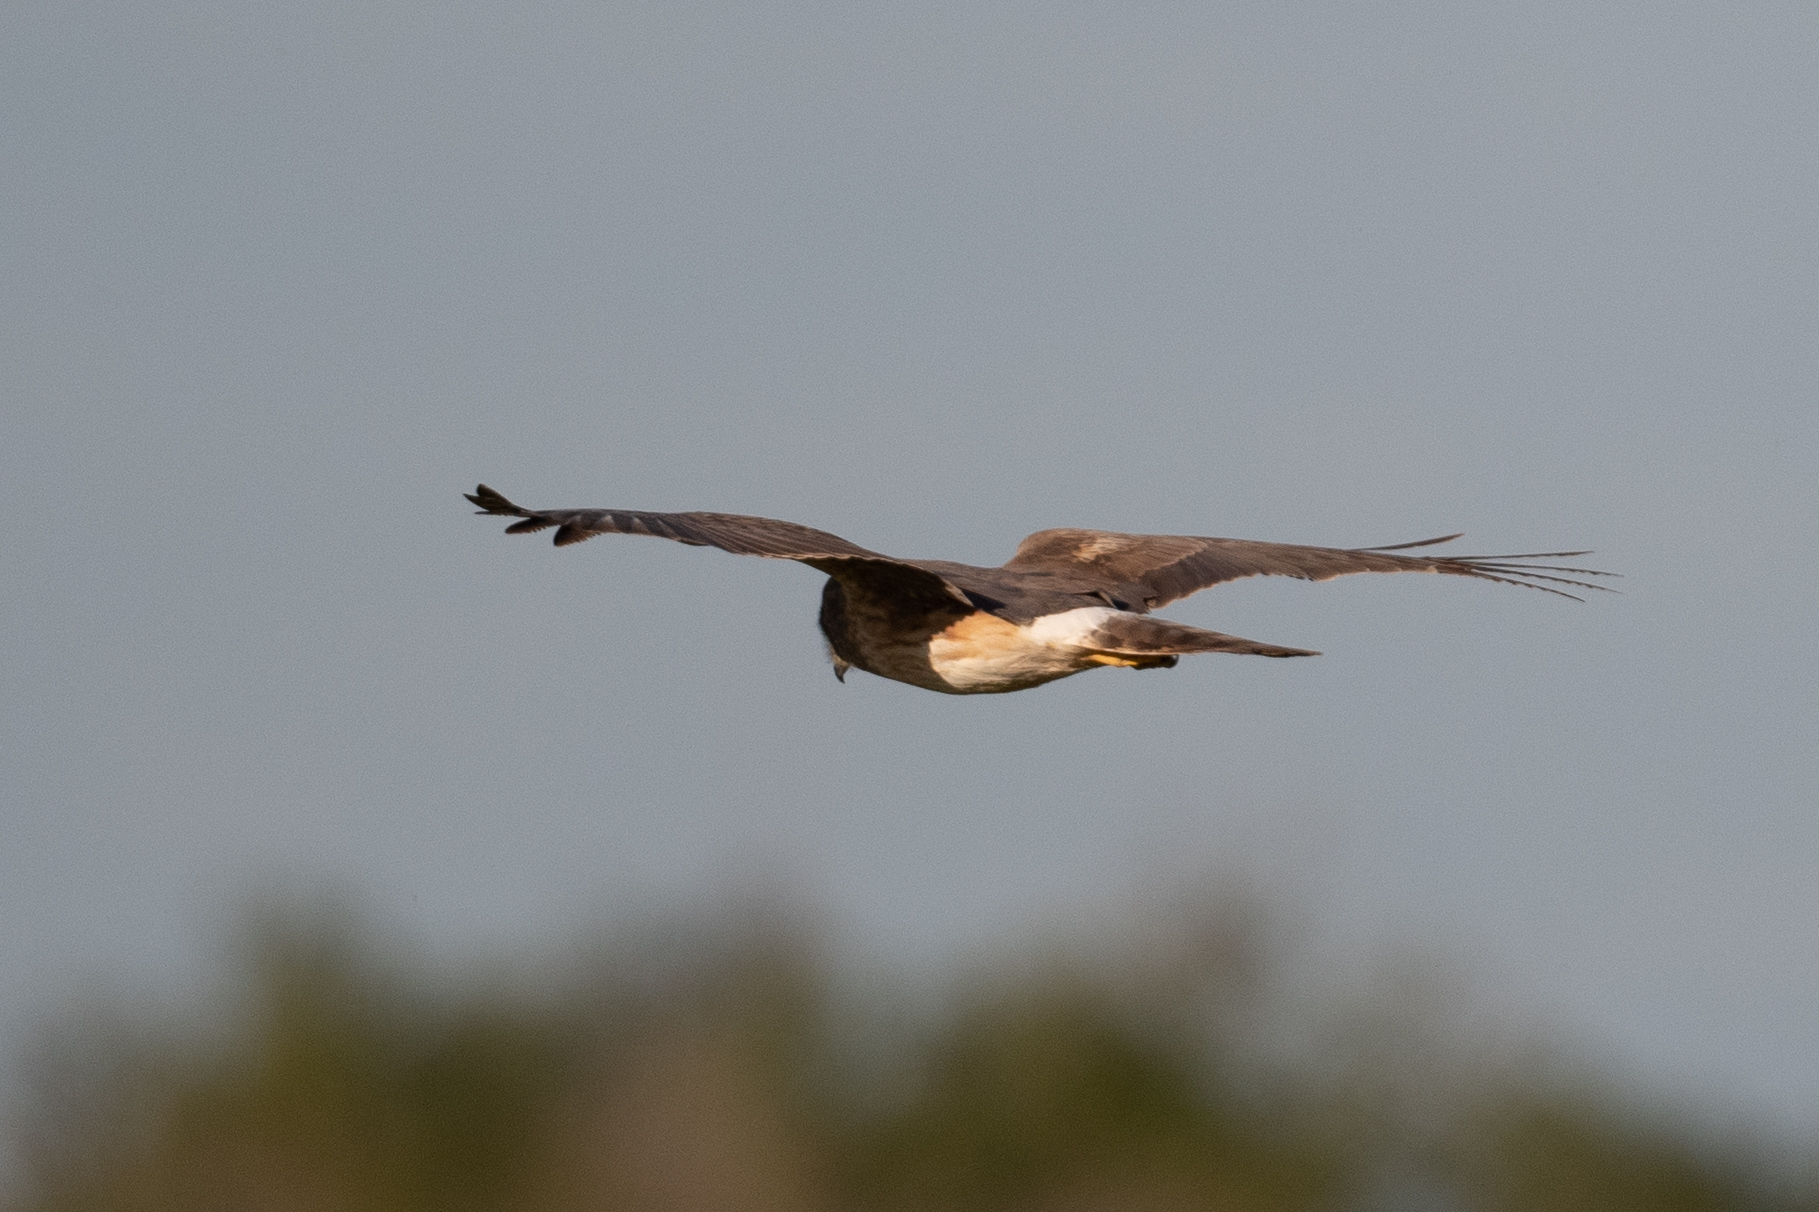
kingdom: Animalia
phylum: Chordata
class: Aves
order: Accipitriformes
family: Accipitridae
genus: Circus
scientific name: Circus cyaneus
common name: Hen harrier
